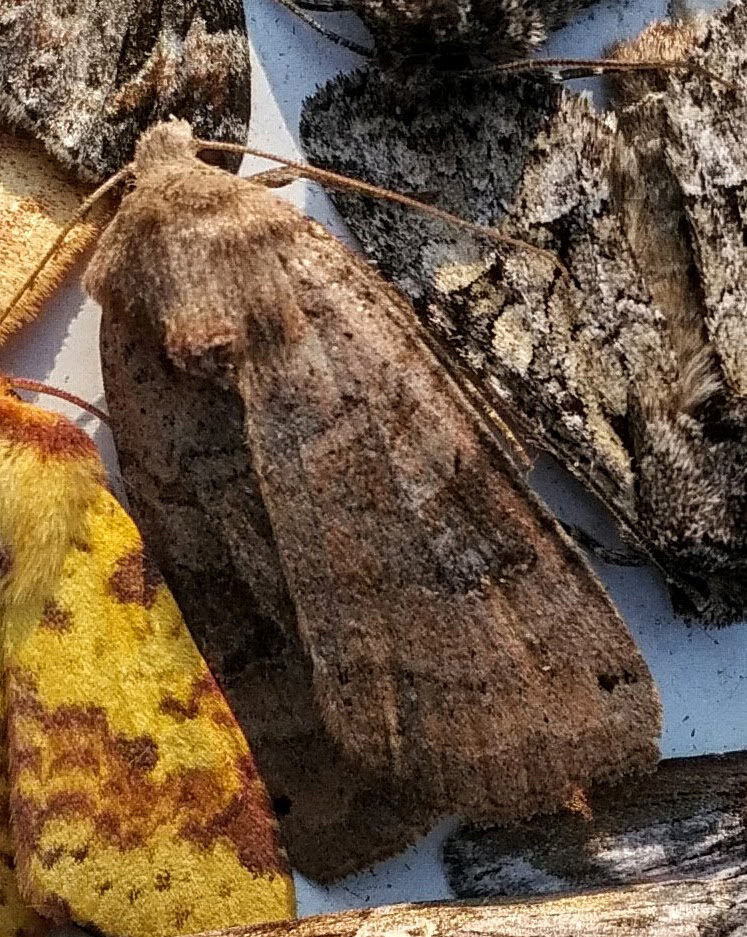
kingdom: Animalia
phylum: Arthropoda
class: Insecta
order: Lepidoptera
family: Noctuidae
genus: Xestia
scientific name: Xestia smithii
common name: Smith's dart
